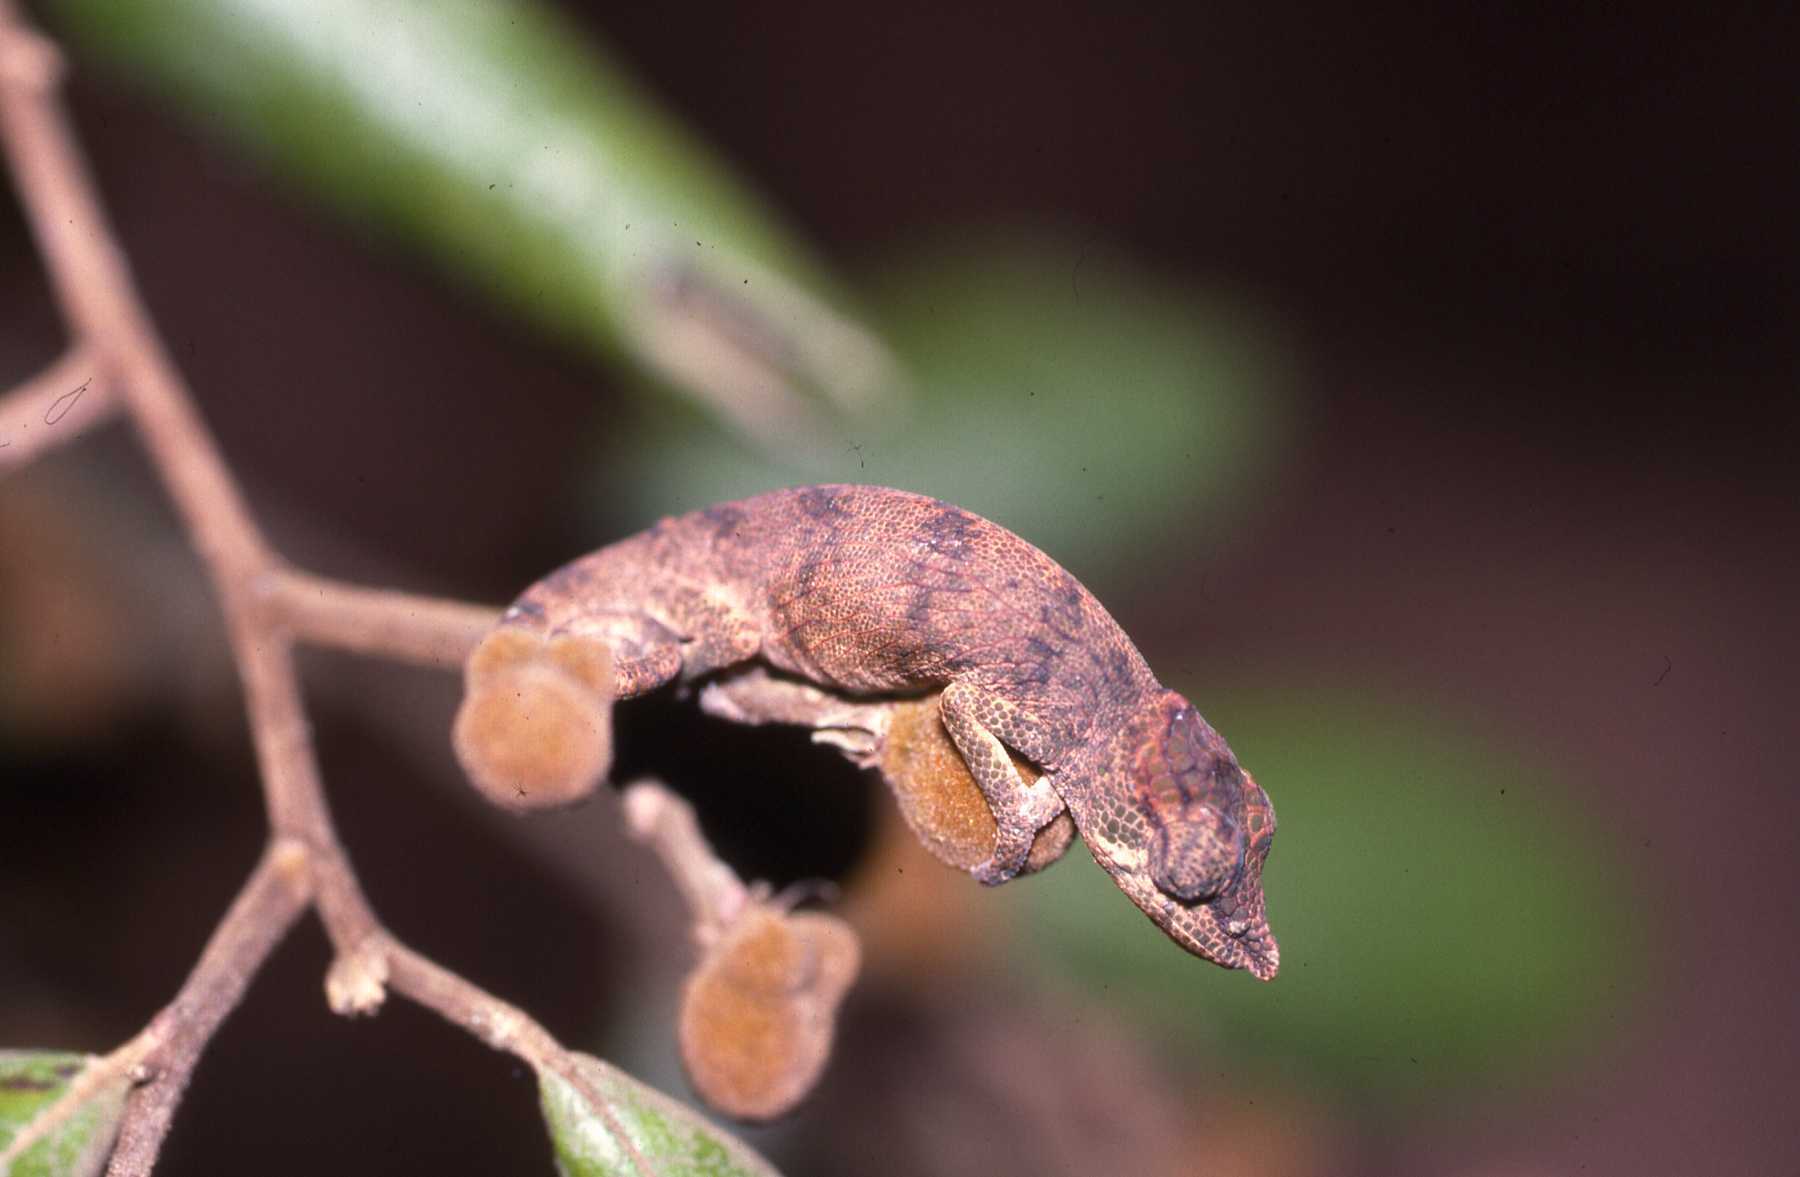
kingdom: Animalia
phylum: Chordata
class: Squamata
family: Chamaeleonidae
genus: Calumma
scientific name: Calumma nasutum
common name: Nose-horned chameleon
